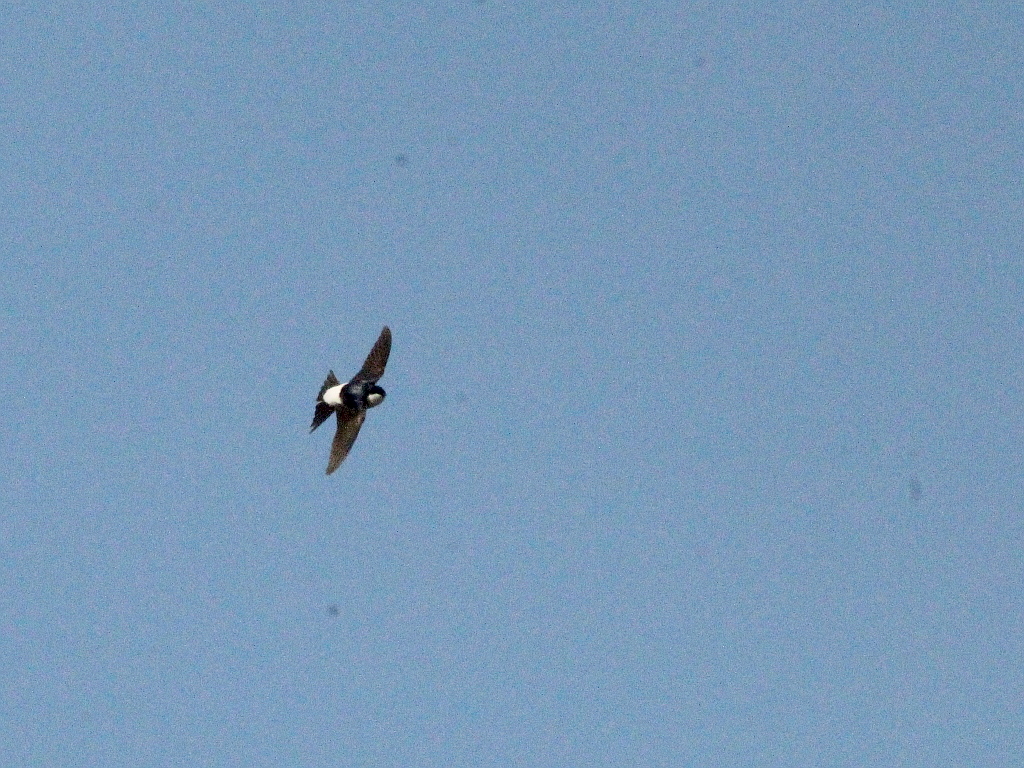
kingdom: Animalia
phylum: Chordata
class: Aves
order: Passeriformes
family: Hirundinidae
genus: Delichon
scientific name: Delichon urbicum
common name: Common house martin
